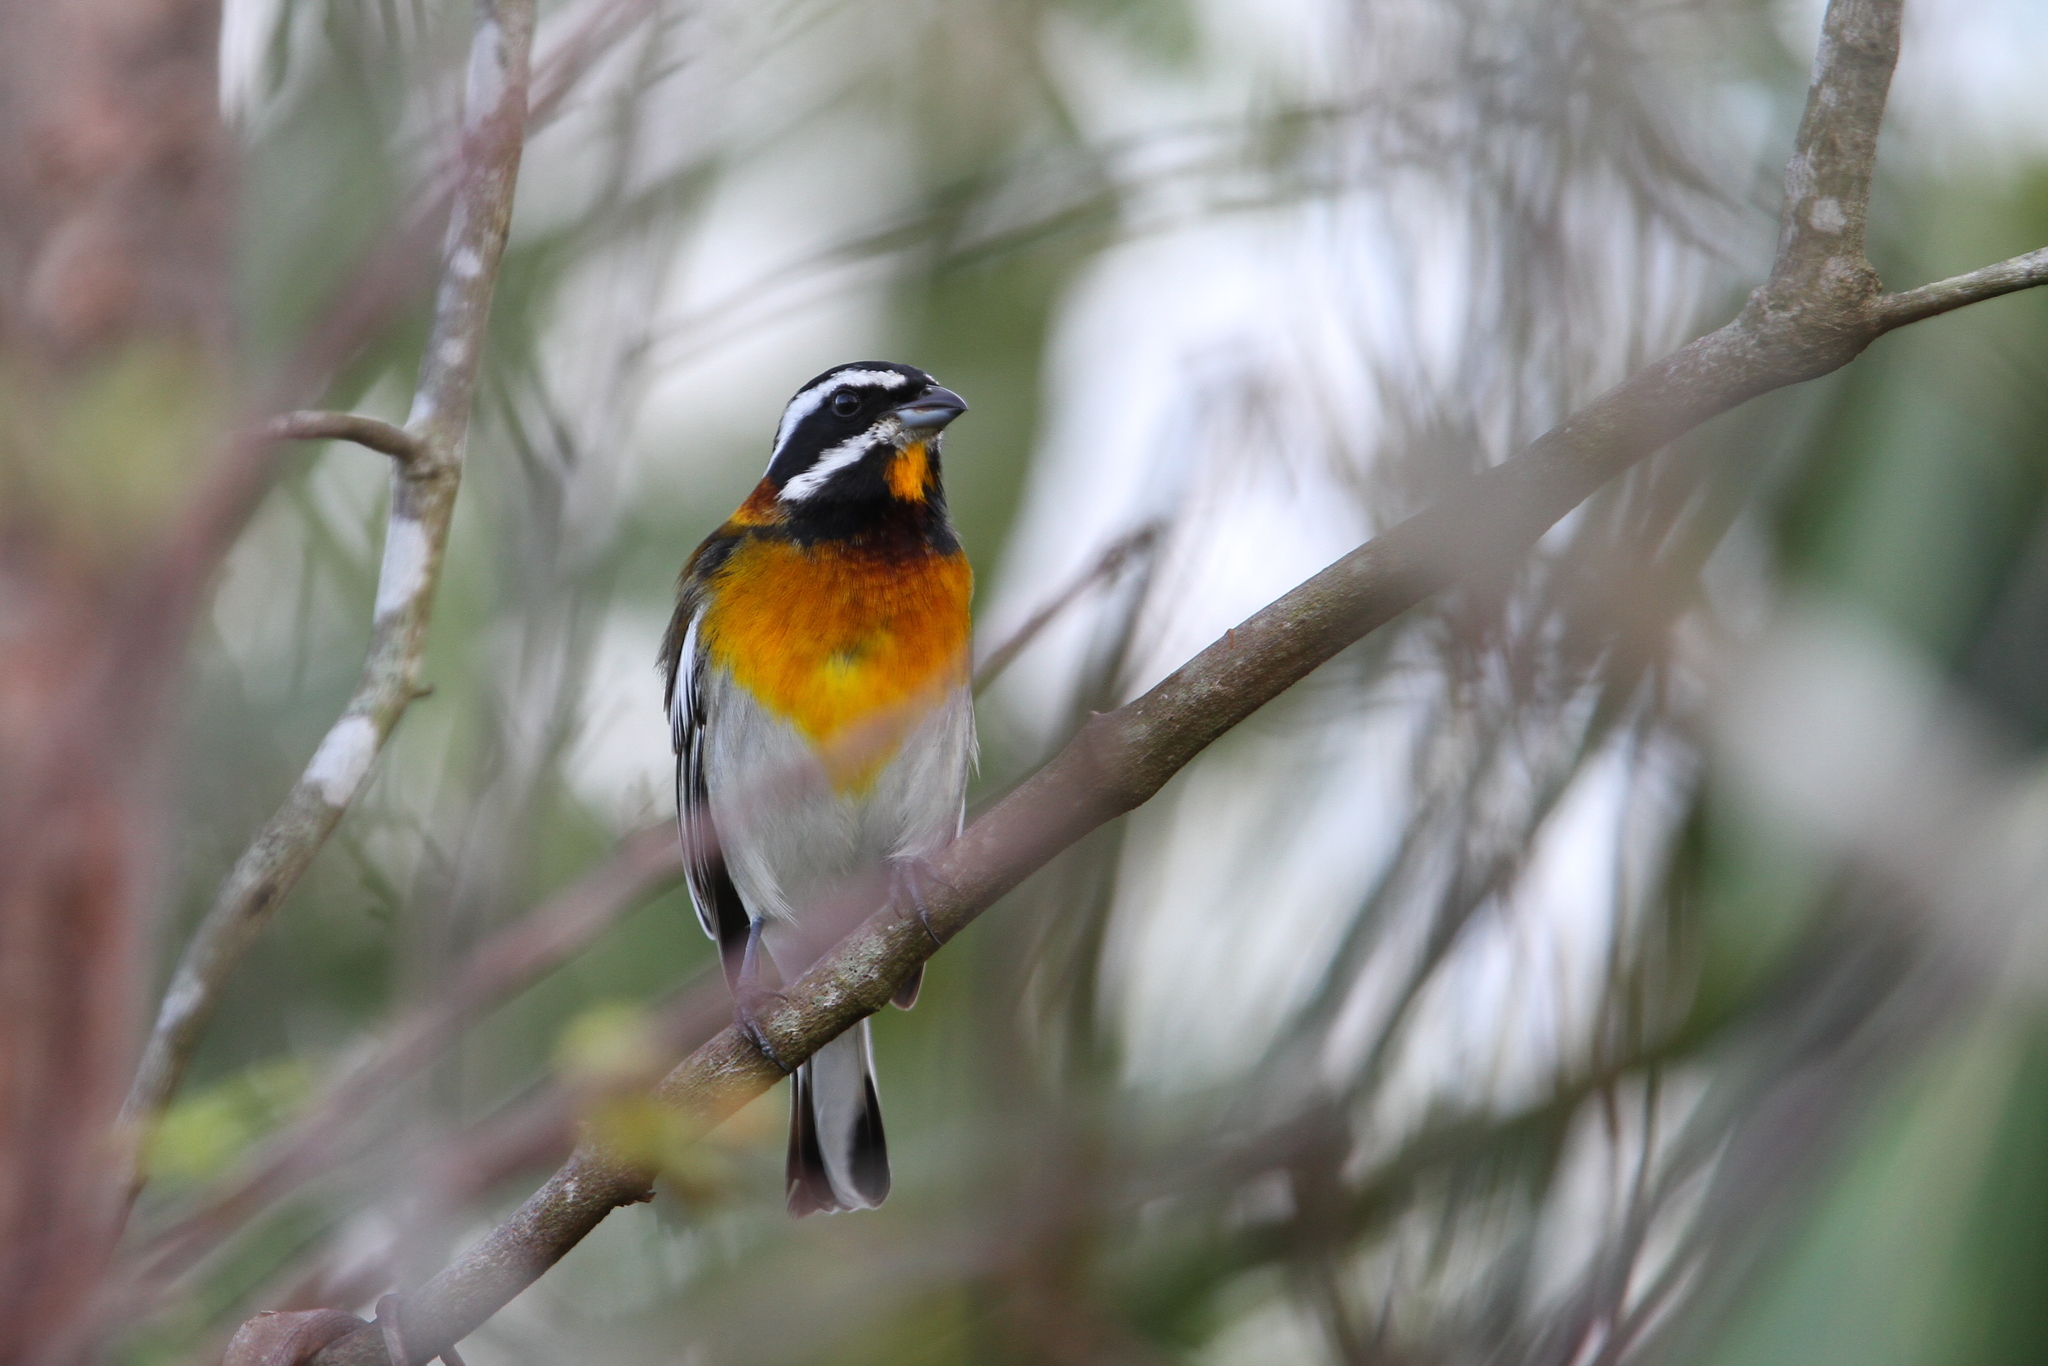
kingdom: Animalia
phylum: Chordata
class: Aves
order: Passeriformes
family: Spindalidae
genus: Spindalis
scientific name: Spindalis zena
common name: Western spindalis
